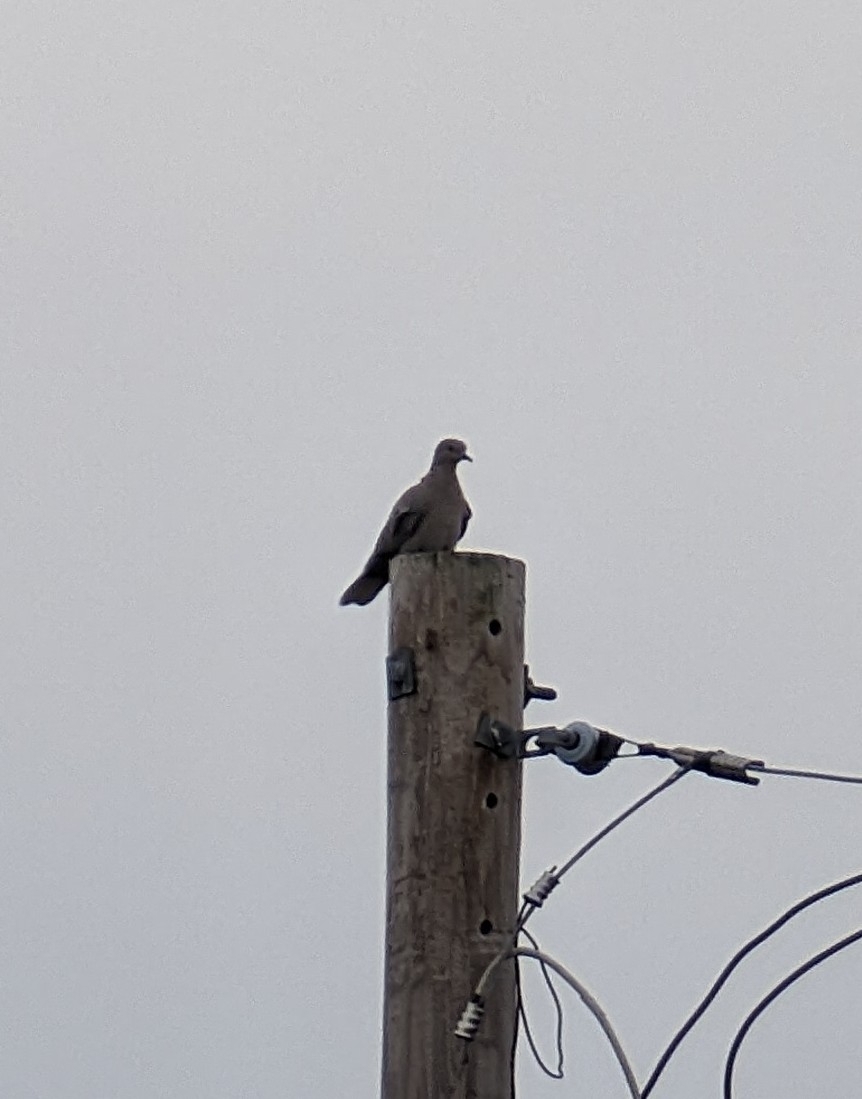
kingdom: Animalia
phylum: Chordata
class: Aves
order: Columbiformes
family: Columbidae
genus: Streptopelia
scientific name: Streptopelia decaocto
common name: Eurasian collared dove
